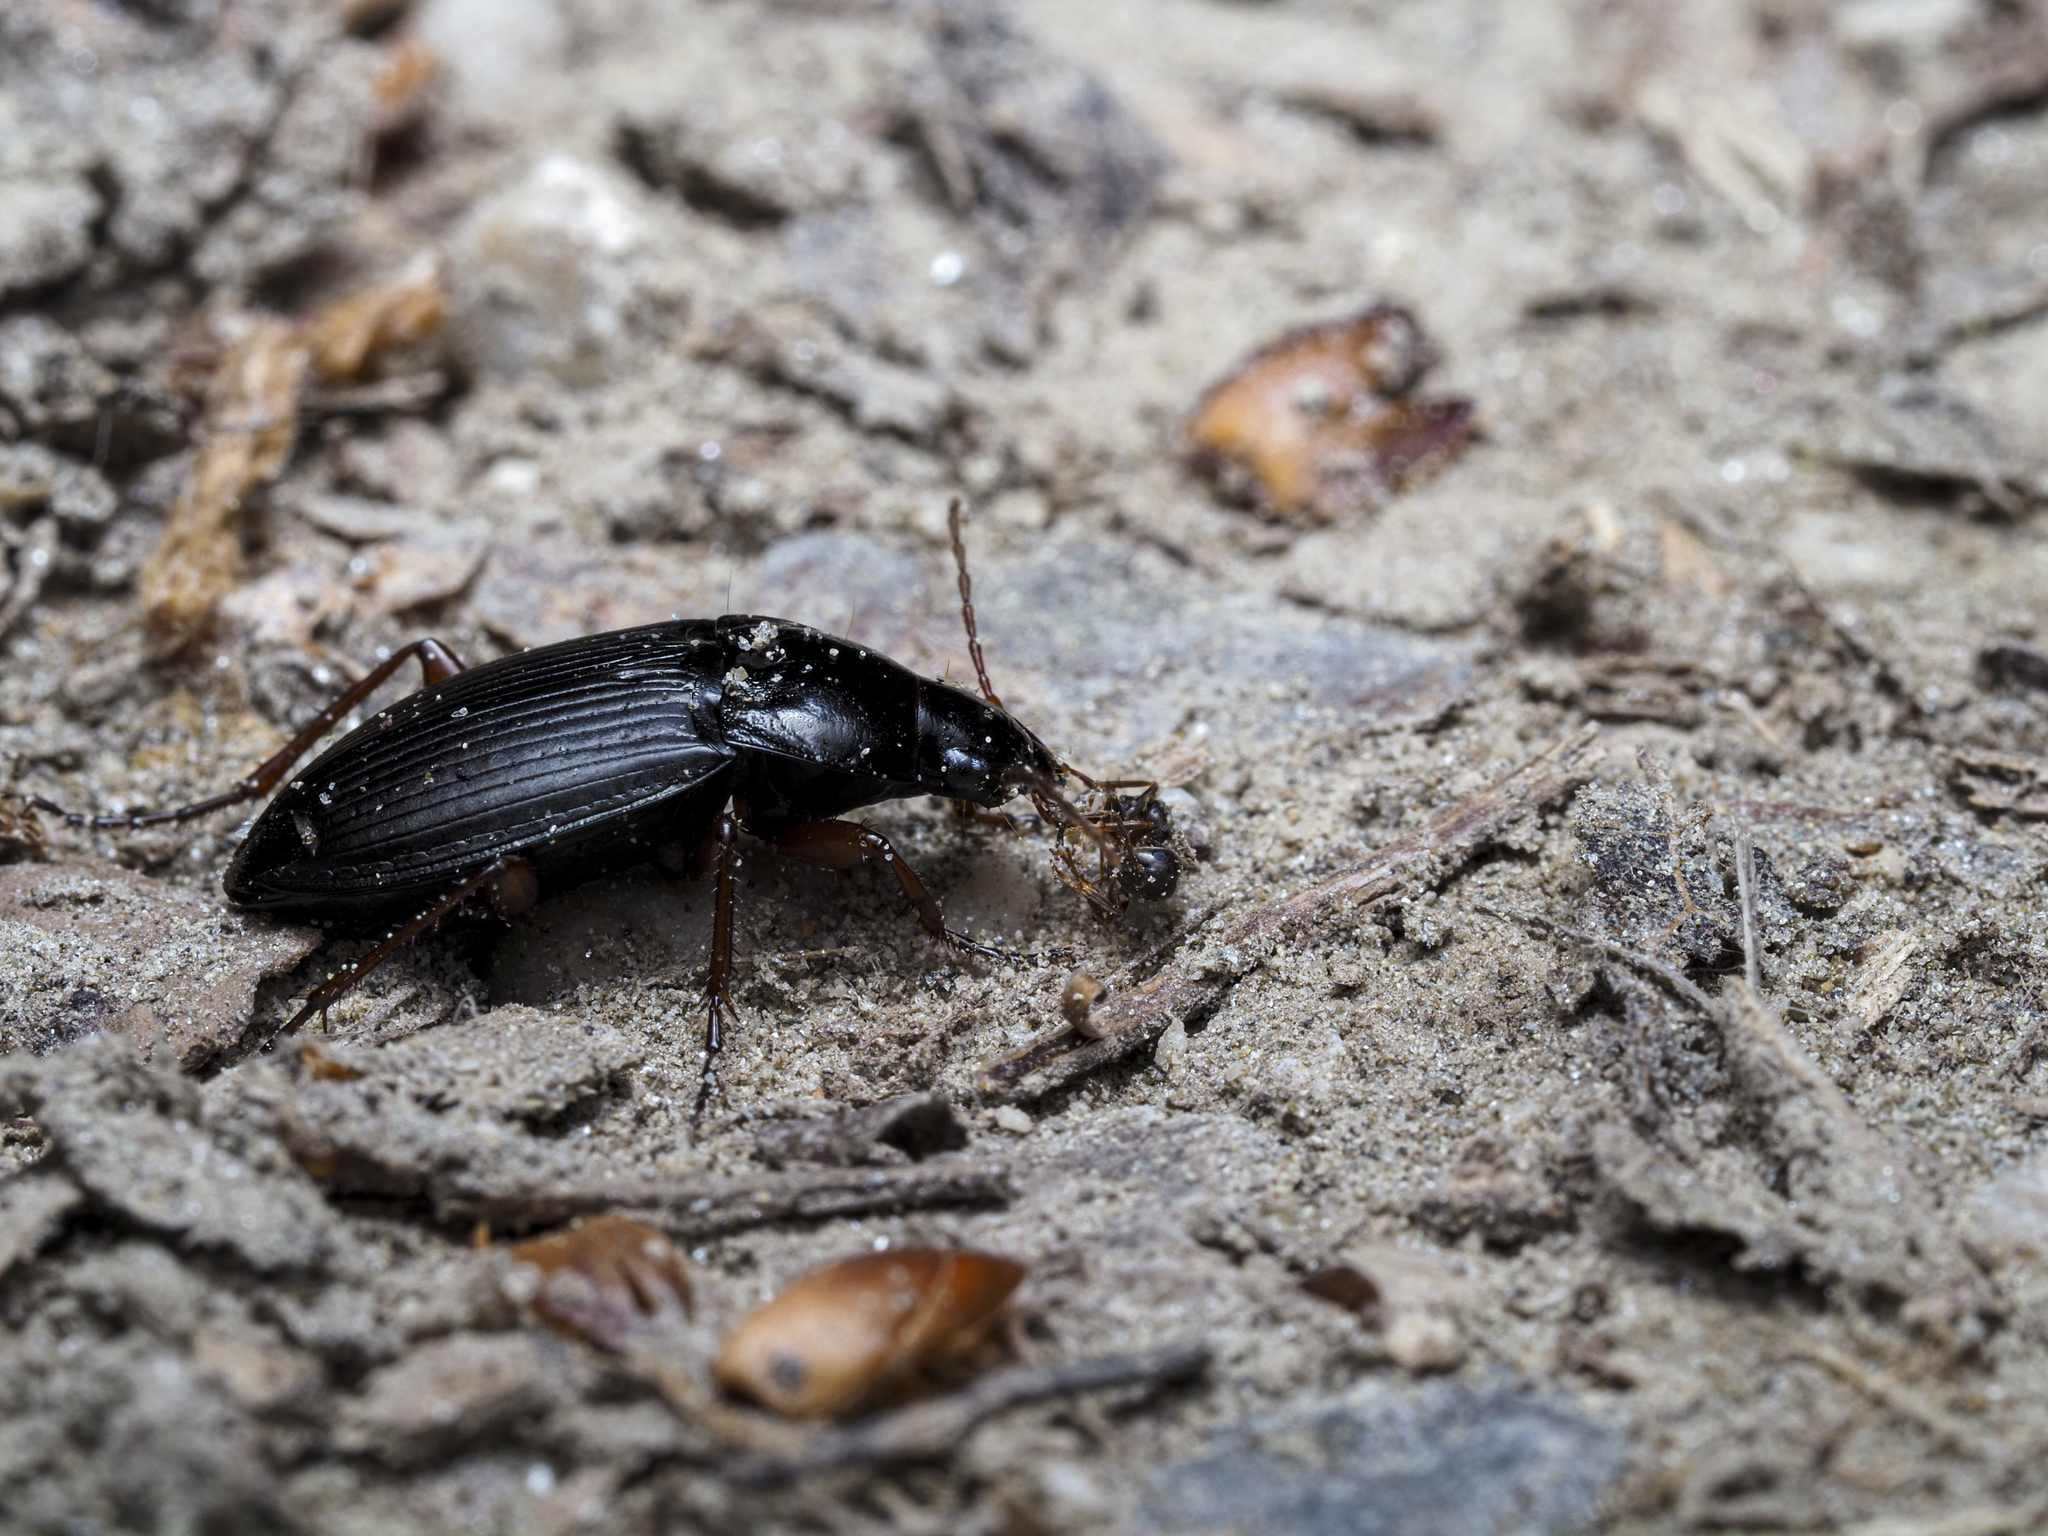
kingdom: Animalia
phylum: Arthropoda
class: Insecta
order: Coleoptera
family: Carabidae
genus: Calathus
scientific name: Calathus fuscipes
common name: Dark-footed harp ground beetle
